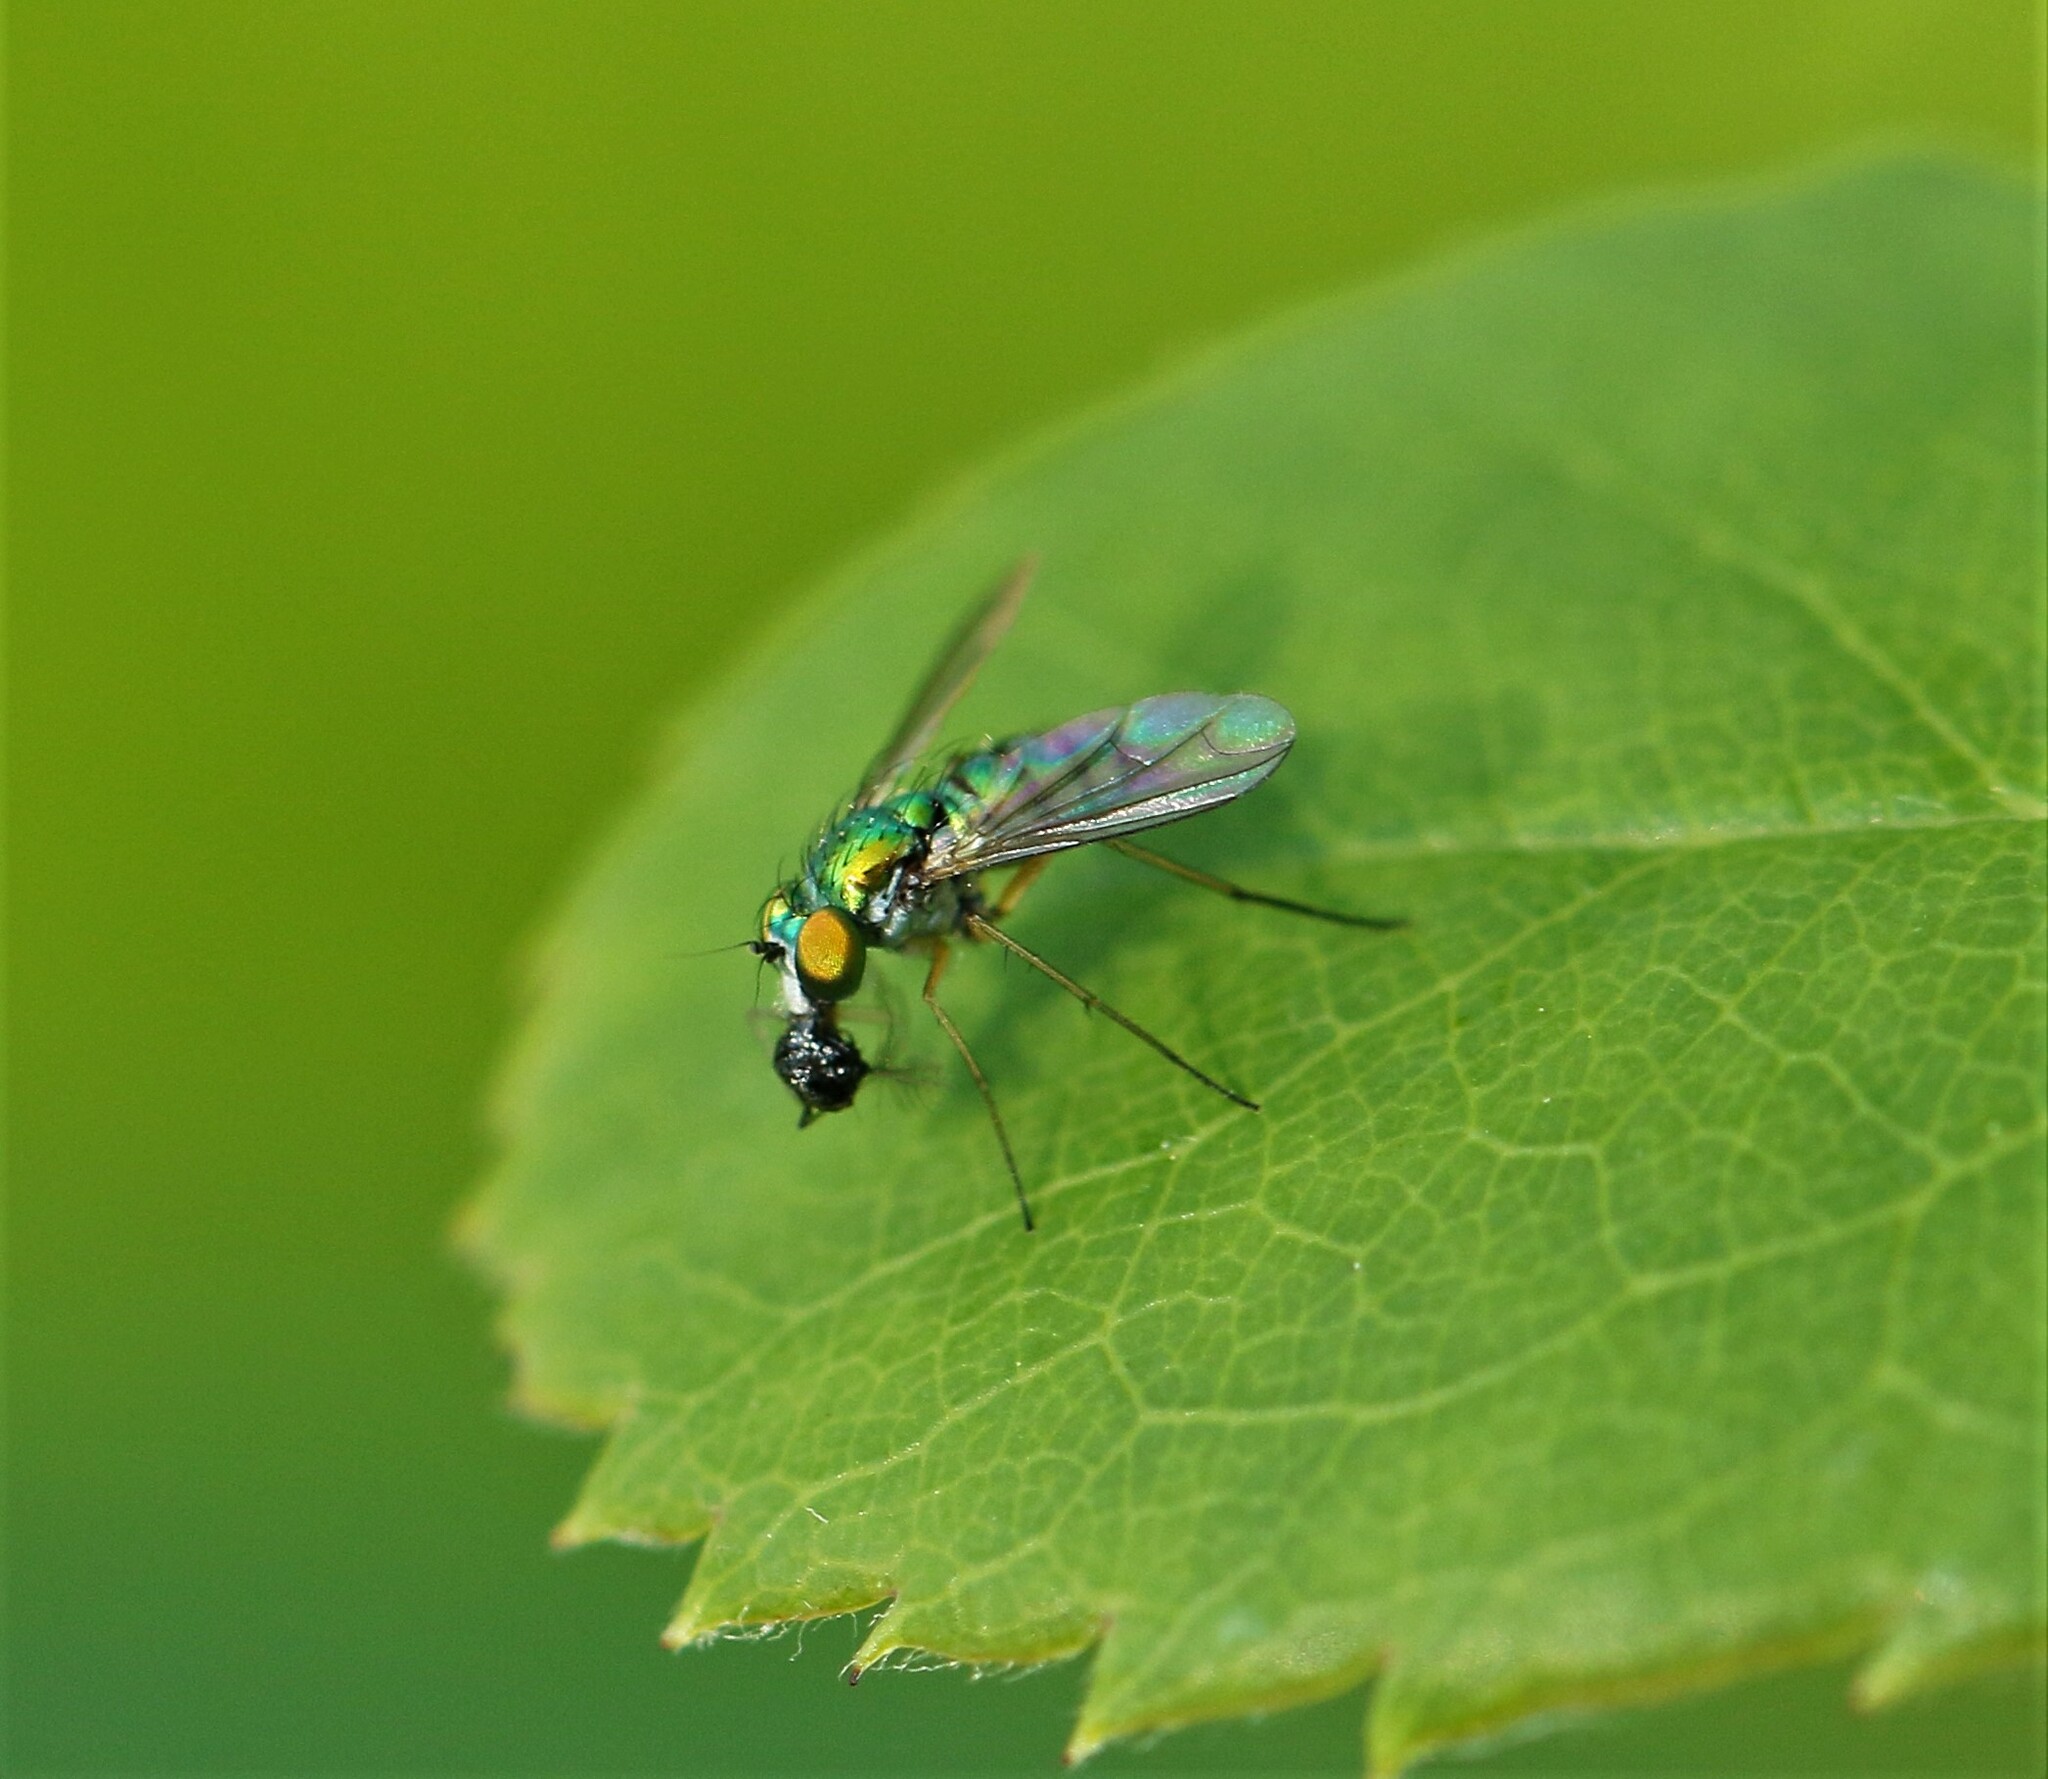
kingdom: Animalia
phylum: Arthropoda
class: Insecta
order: Diptera
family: Dolichopodidae
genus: Condylostylus
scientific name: Condylostylus caudatus
